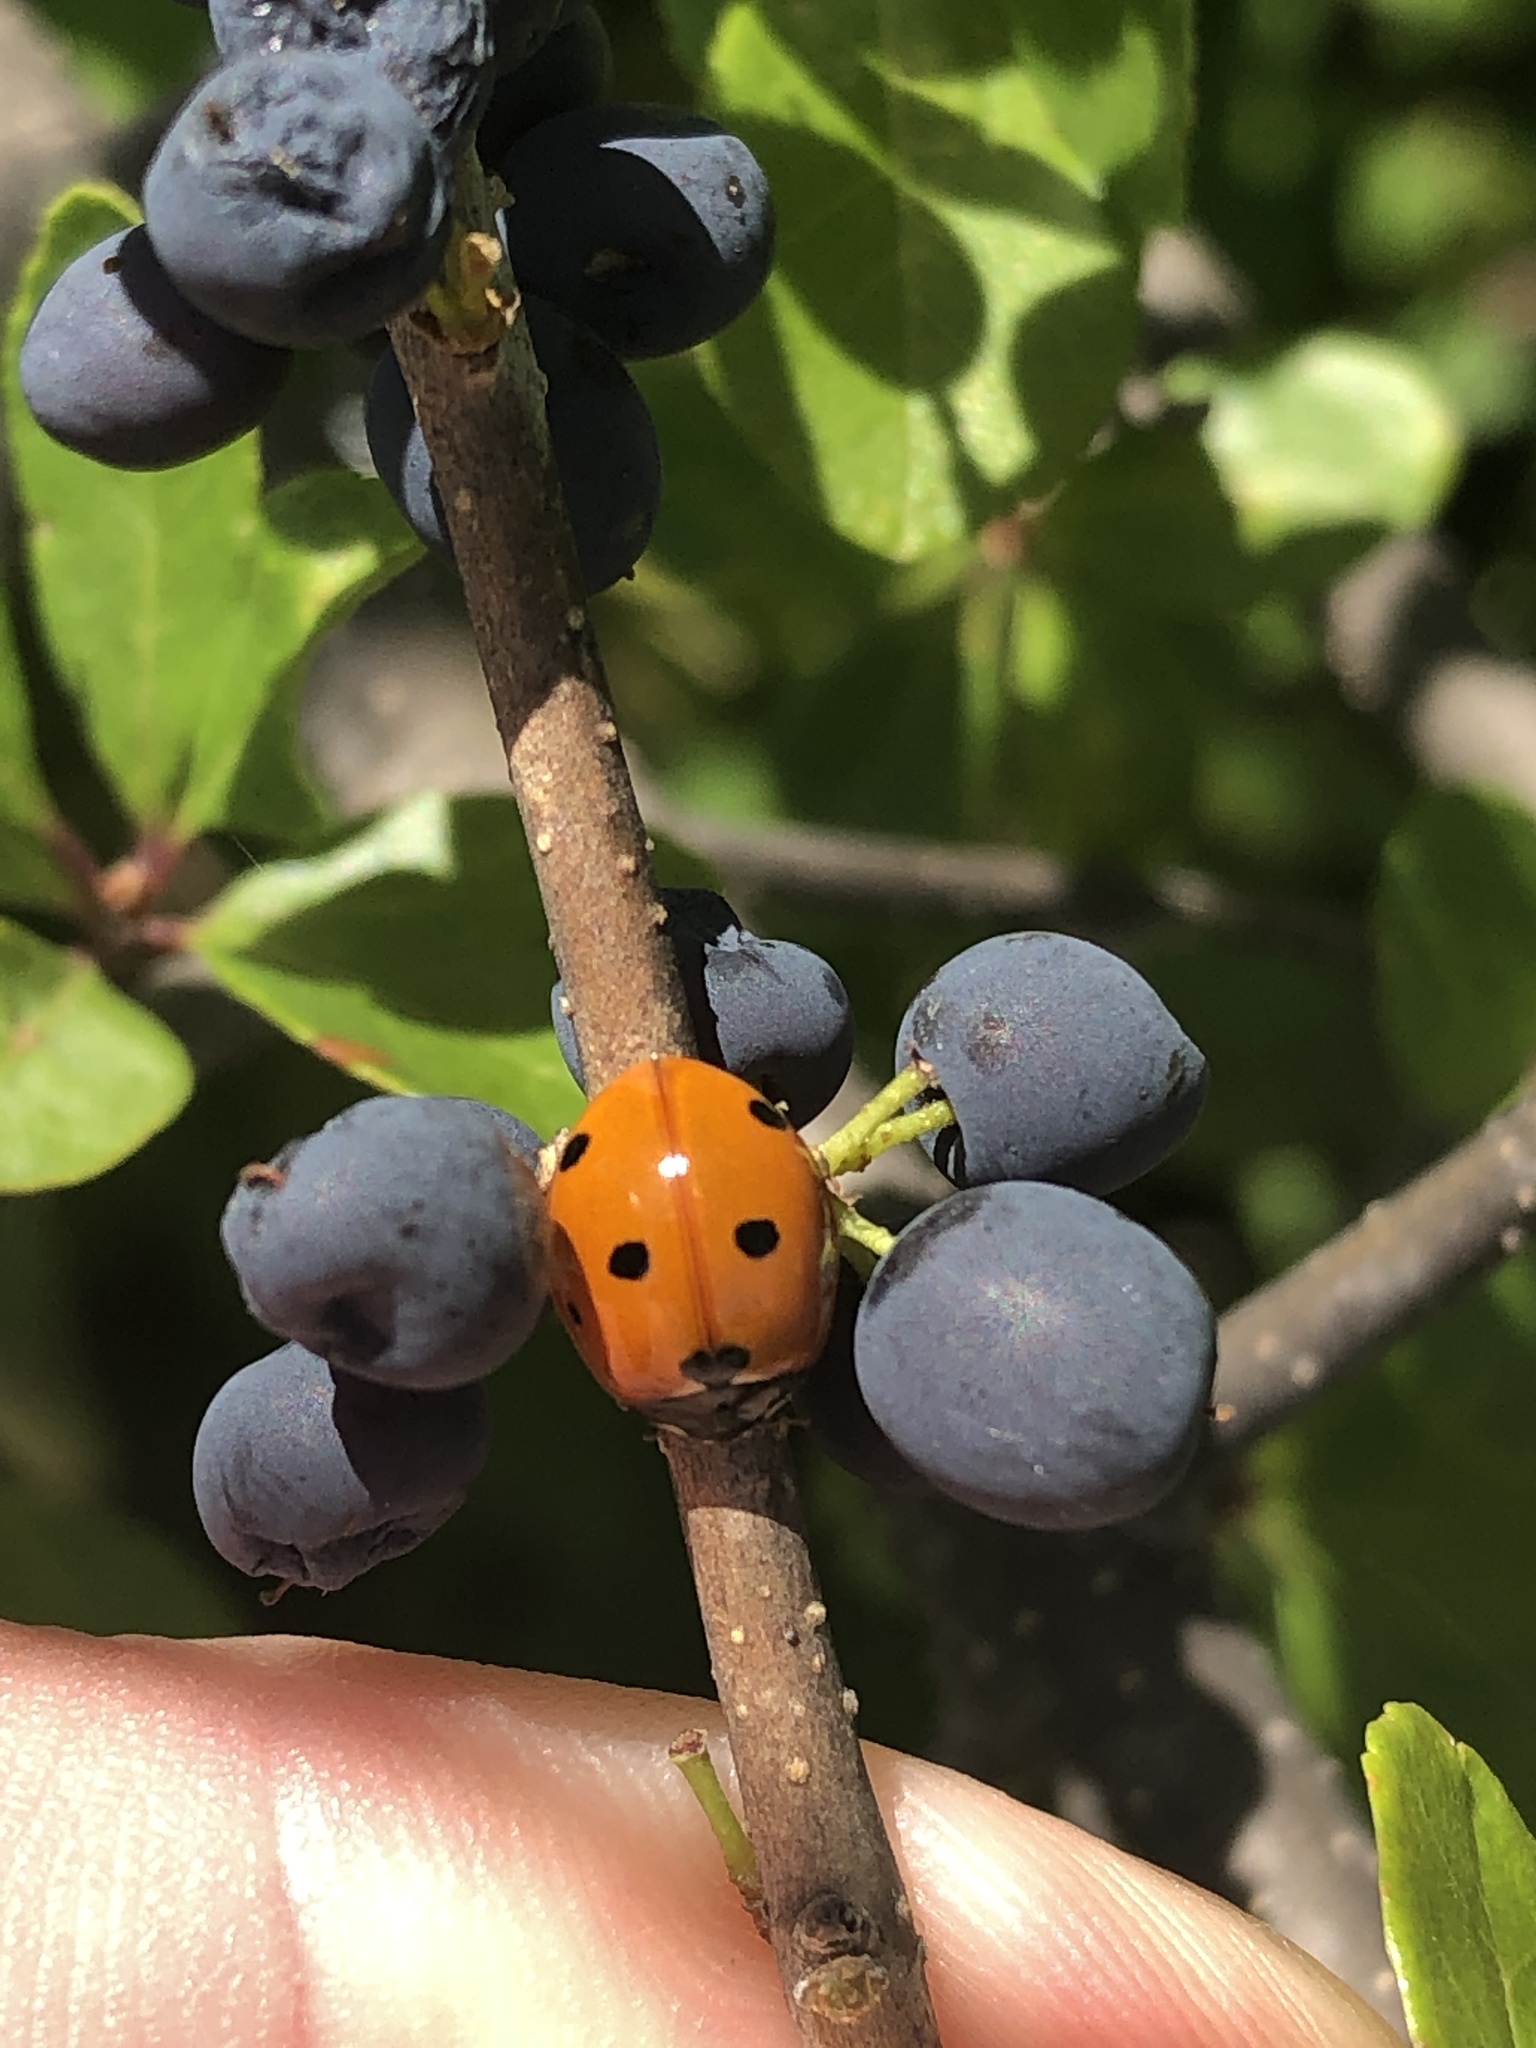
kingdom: Animalia
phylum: Arthropoda
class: Insecta
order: Coleoptera
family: Coccinellidae
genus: Coccinella
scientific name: Coccinella septempunctata
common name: Sevenspotted lady beetle
